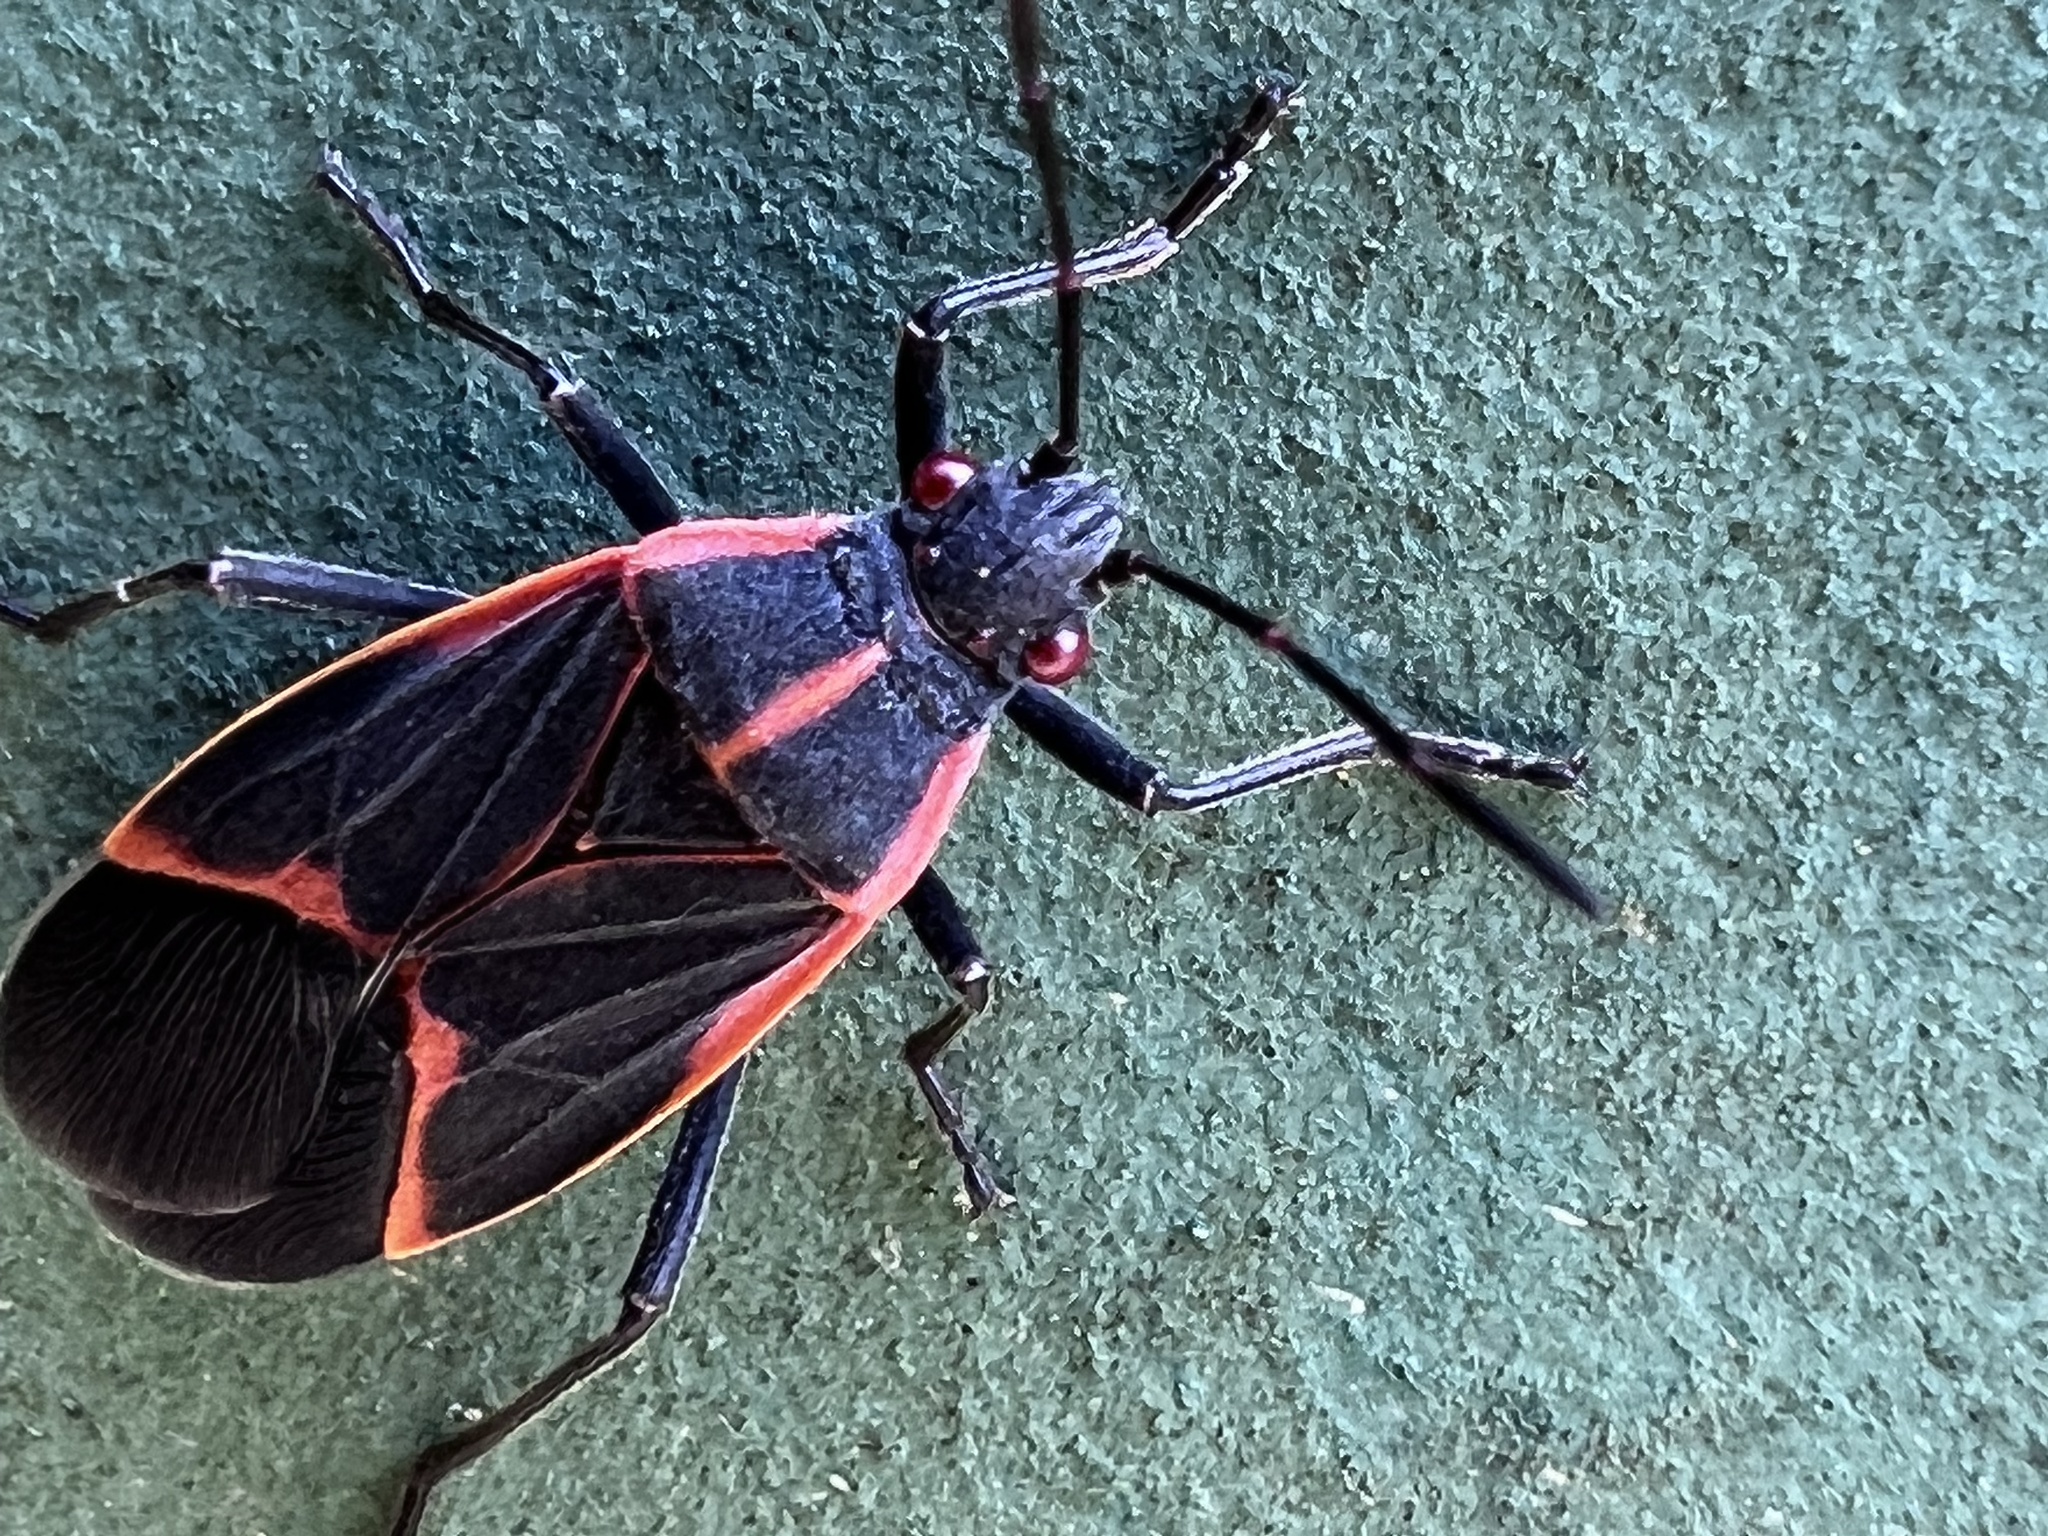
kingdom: Animalia
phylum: Arthropoda
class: Insecta
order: Hemiptera
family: Rhopalidae
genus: Boisea
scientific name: Boisea trivittata
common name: Boxelder bug
